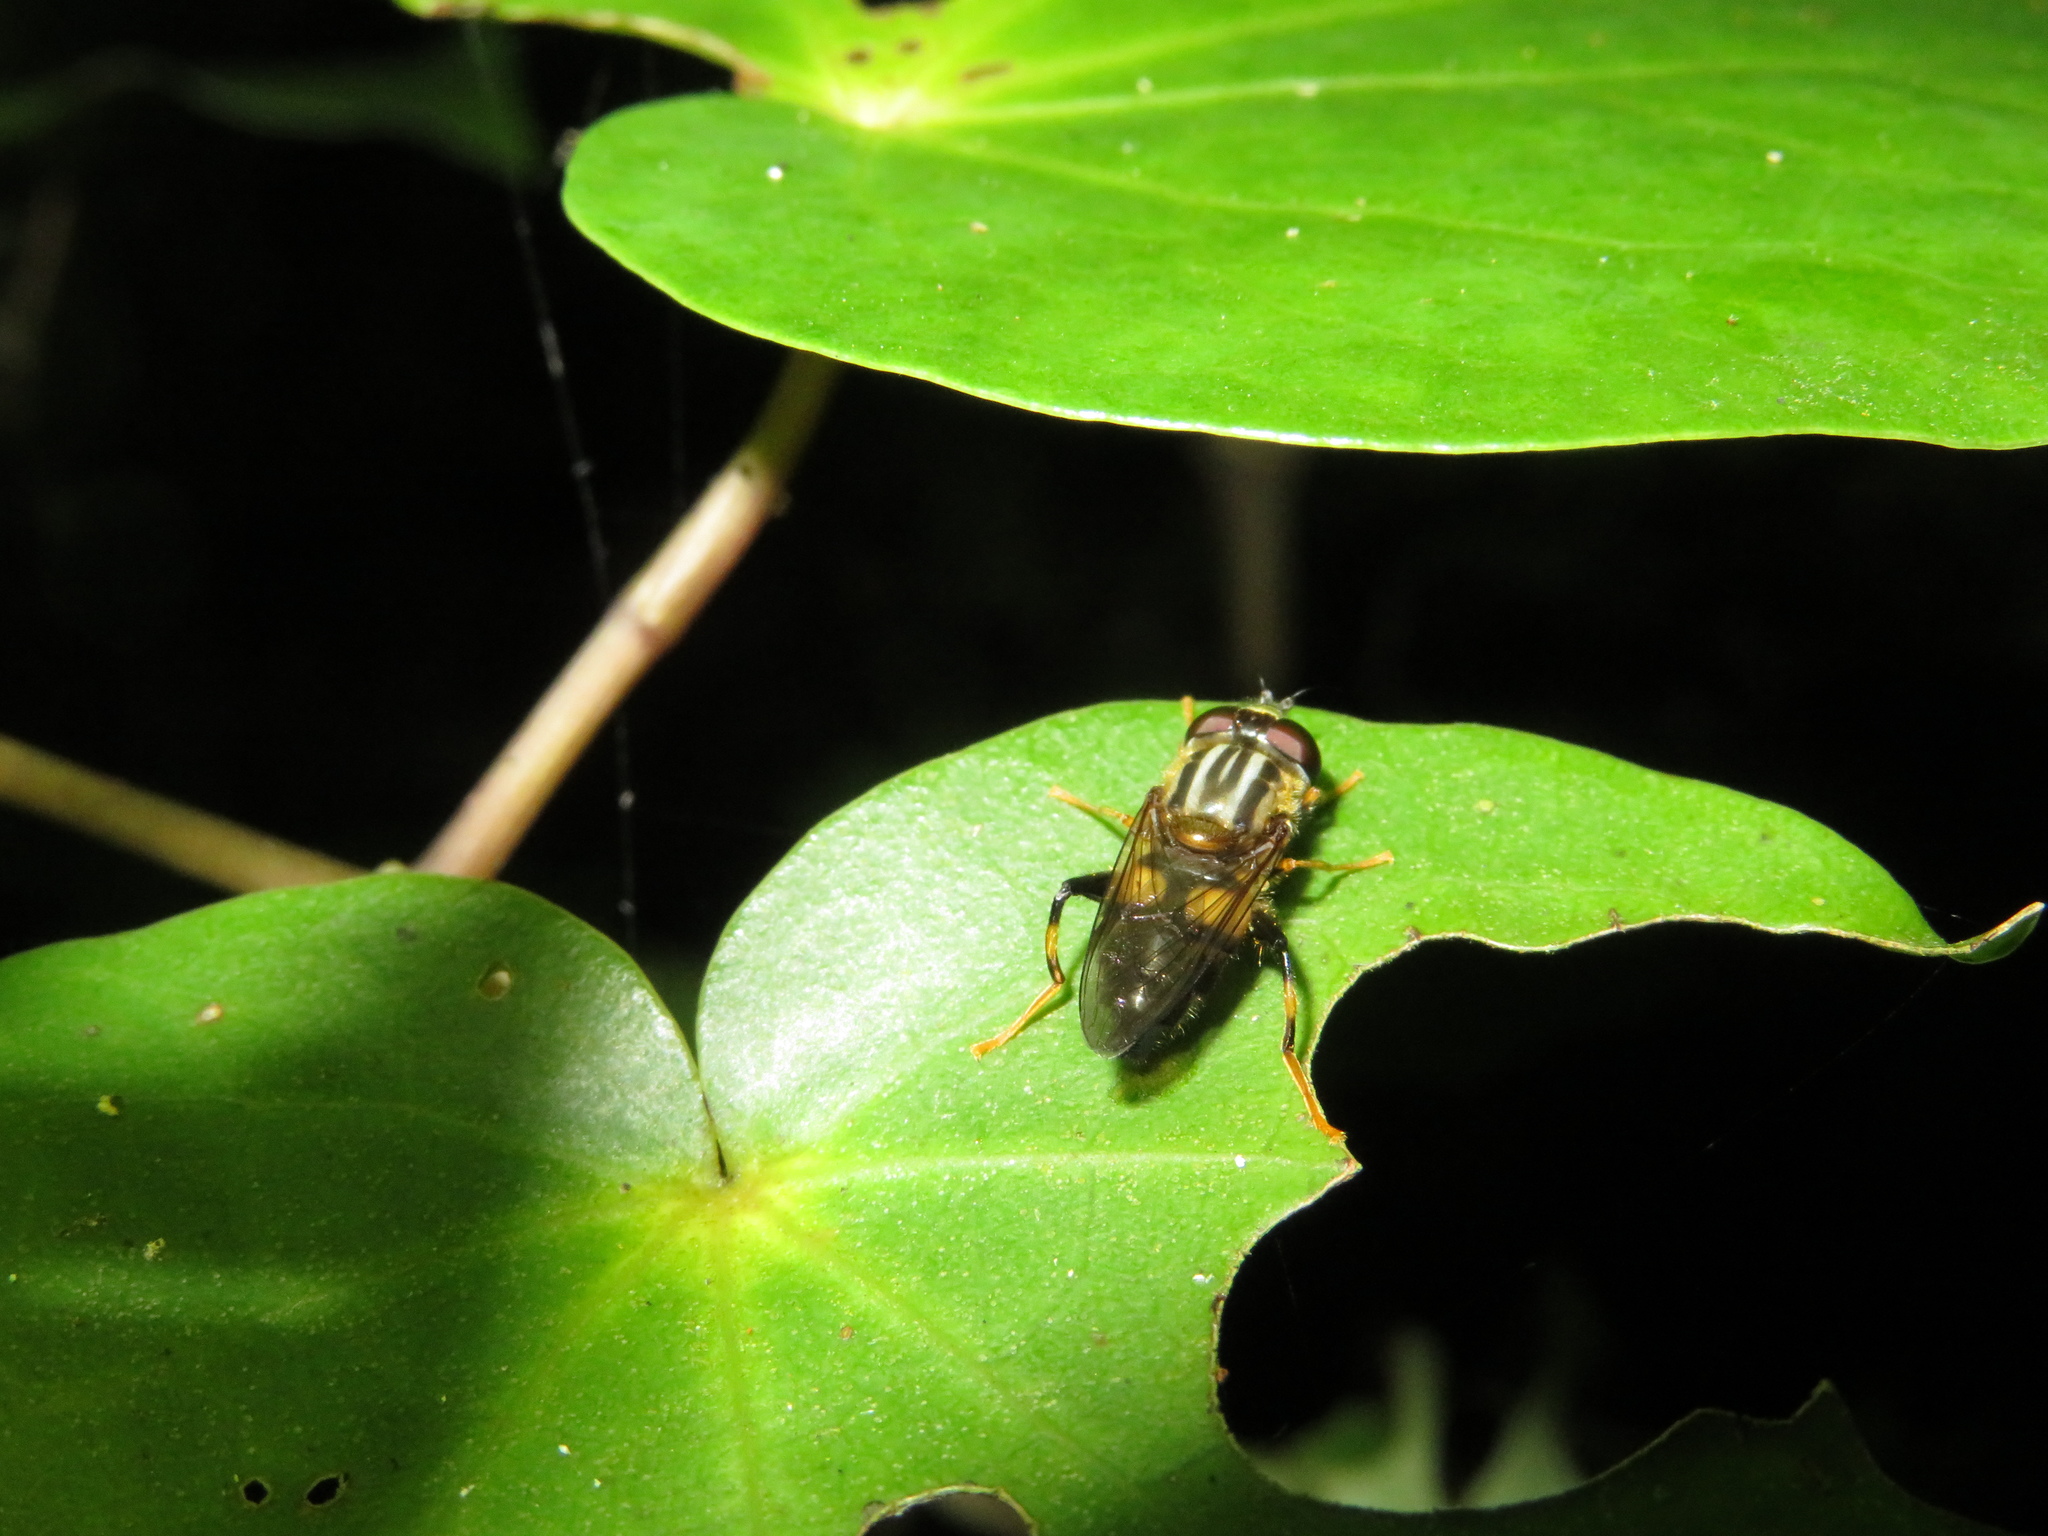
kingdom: Animalia
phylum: Arthropoda
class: Insecta
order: Diptera
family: Syrphidae
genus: Helophilus
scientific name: Helophilus antipodus
